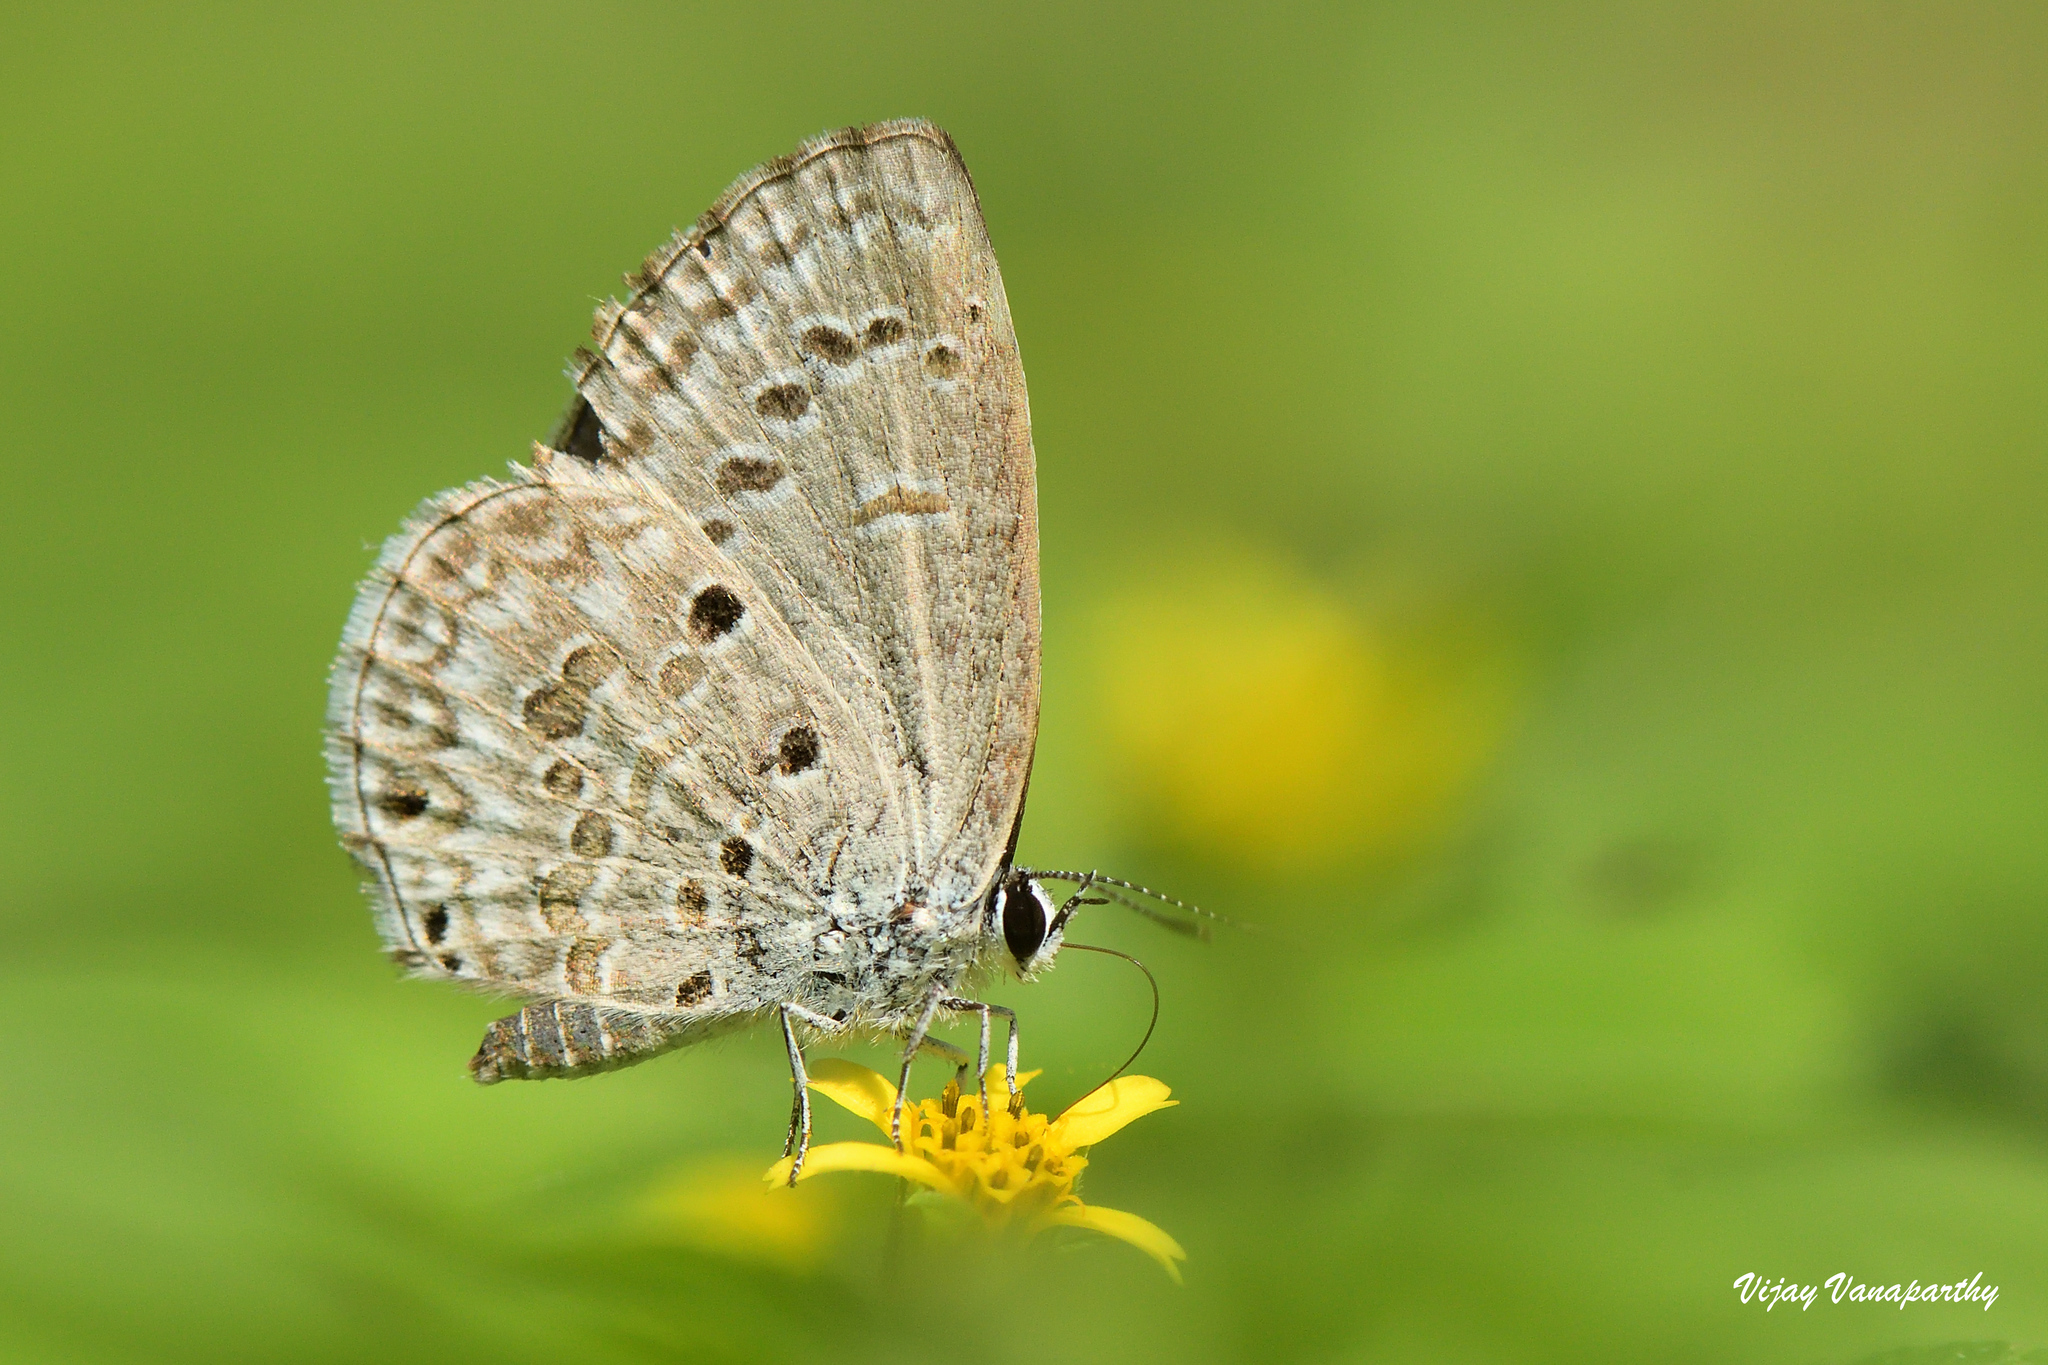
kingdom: Animalia
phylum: Arthropoda
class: Insecta
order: Lepidoptera
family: Lycaenidae
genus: Chilades
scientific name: Chilades laius
